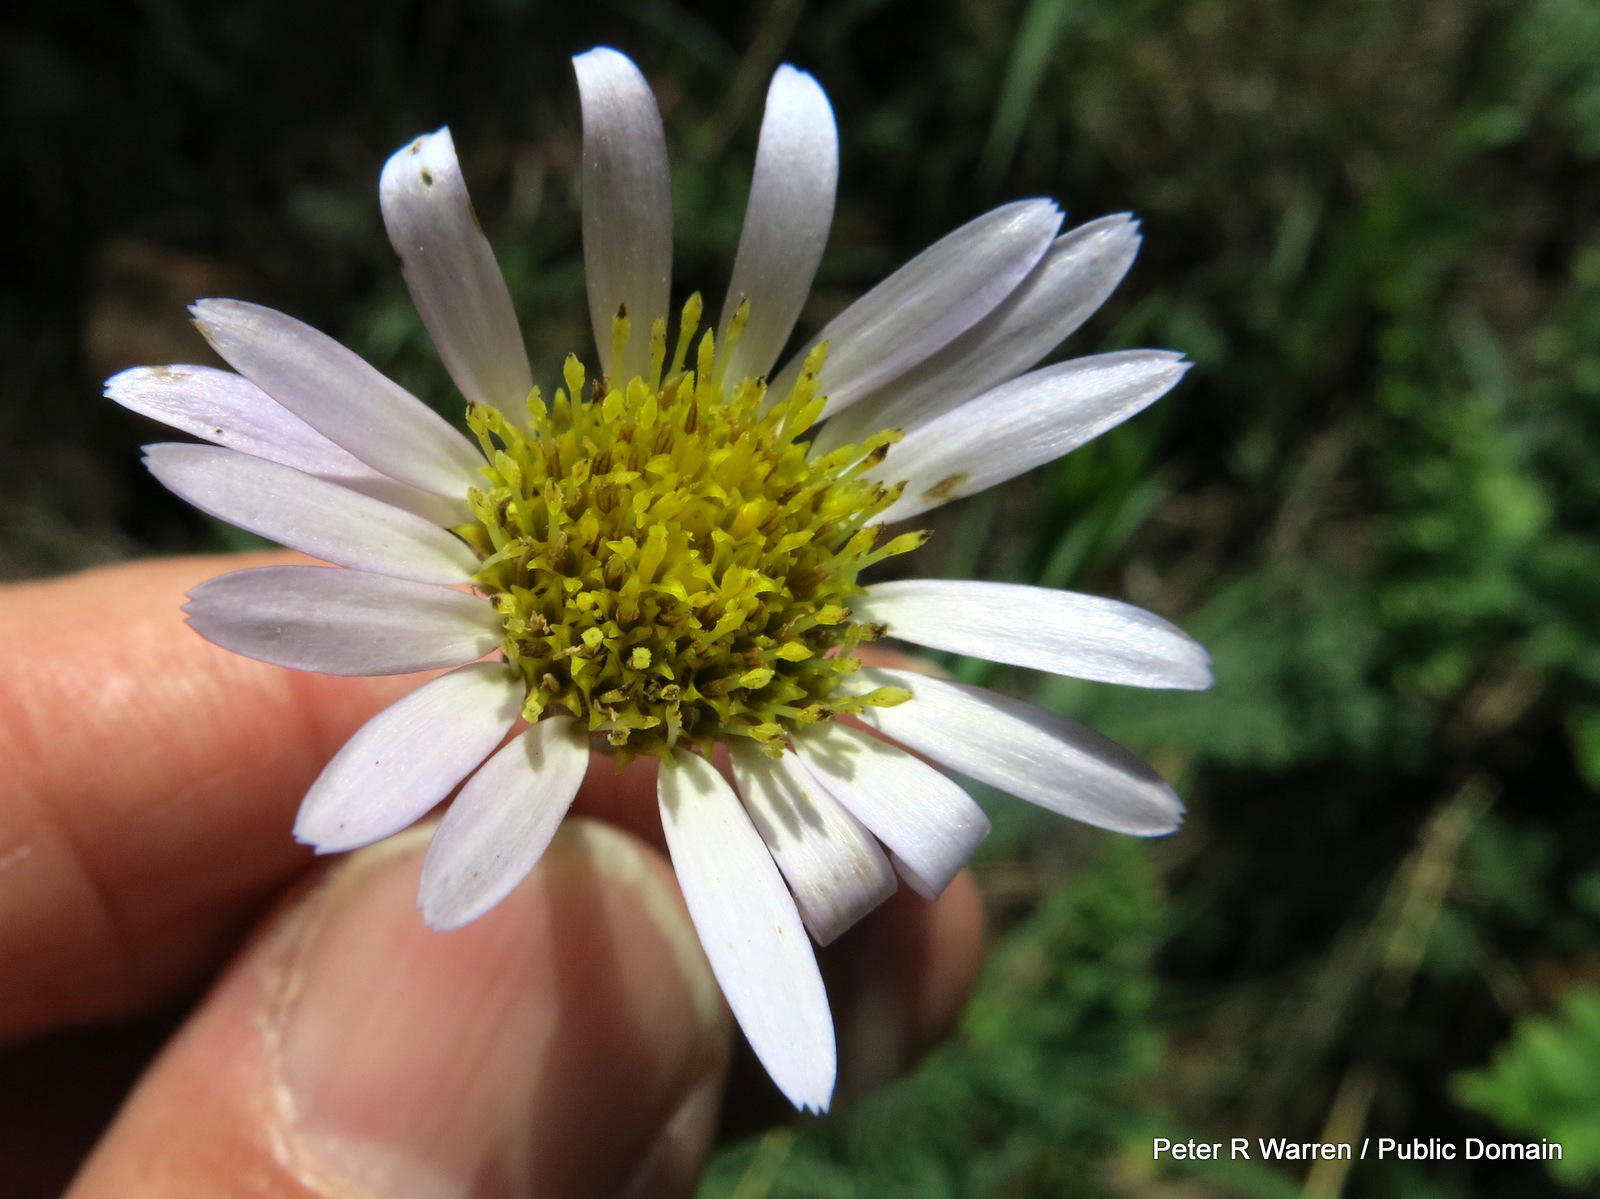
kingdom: Plantae
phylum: Tracheophyta
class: Magnoliopsida
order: Asterales
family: Asteraceae
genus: Afroaster
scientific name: Afroaster serrulatus
